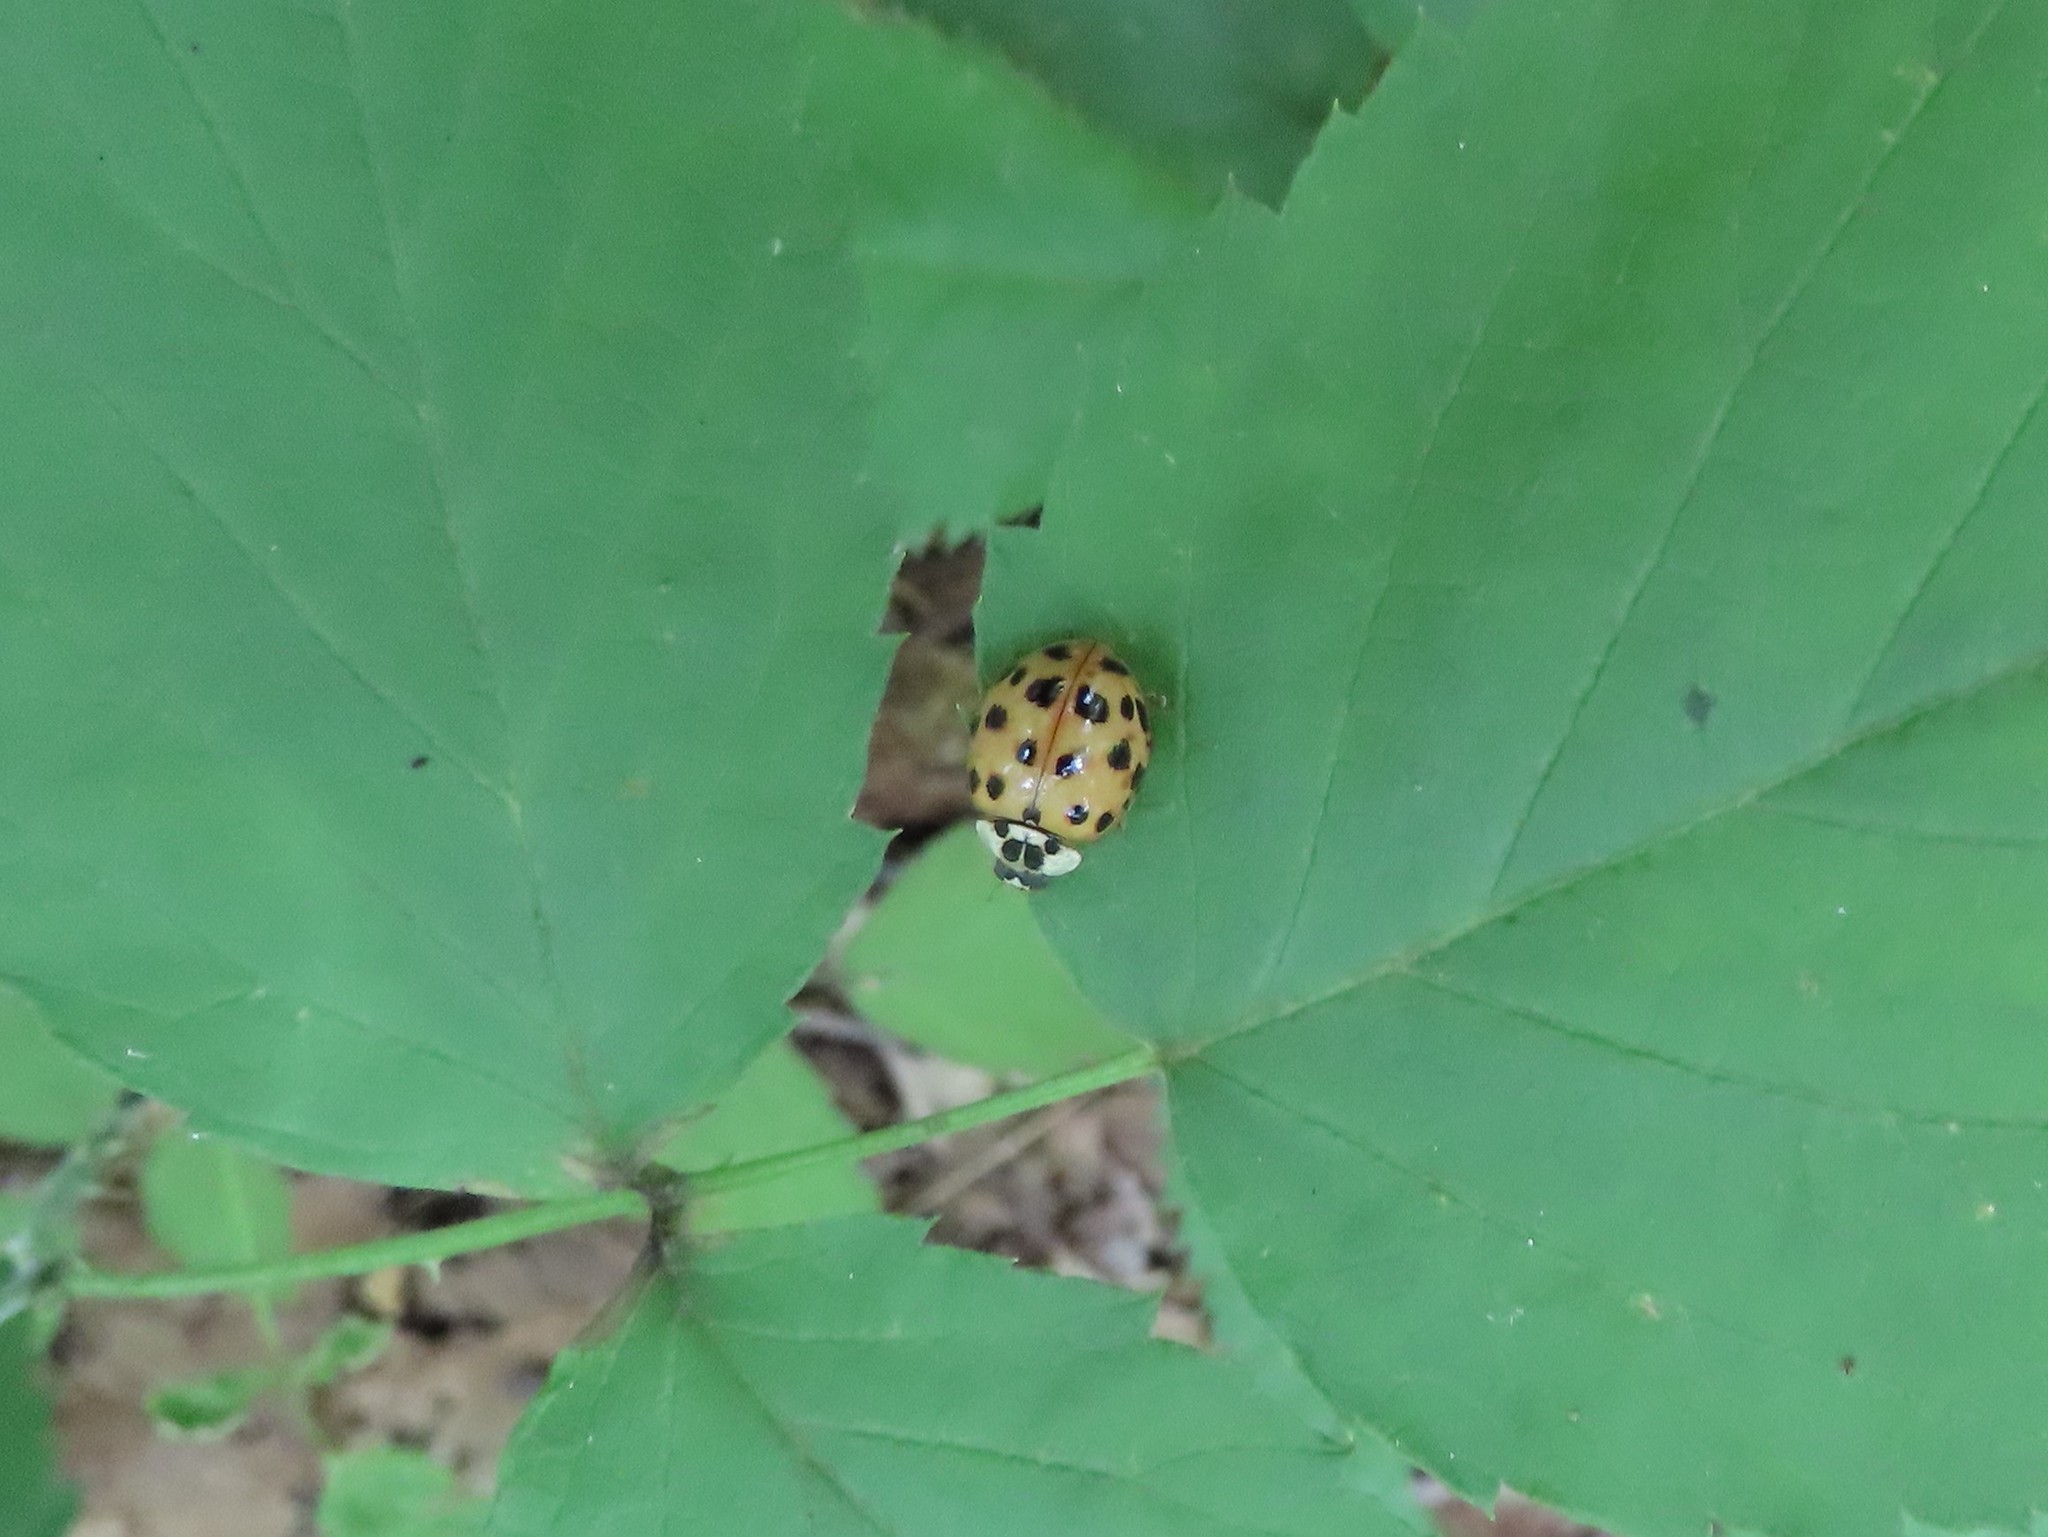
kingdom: Animalia
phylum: Arthropoda
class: Insecta
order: Coleoptera
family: Coccinellidae
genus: Harmonia
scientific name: Harmonia axyridis
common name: Harlequin ladybird
